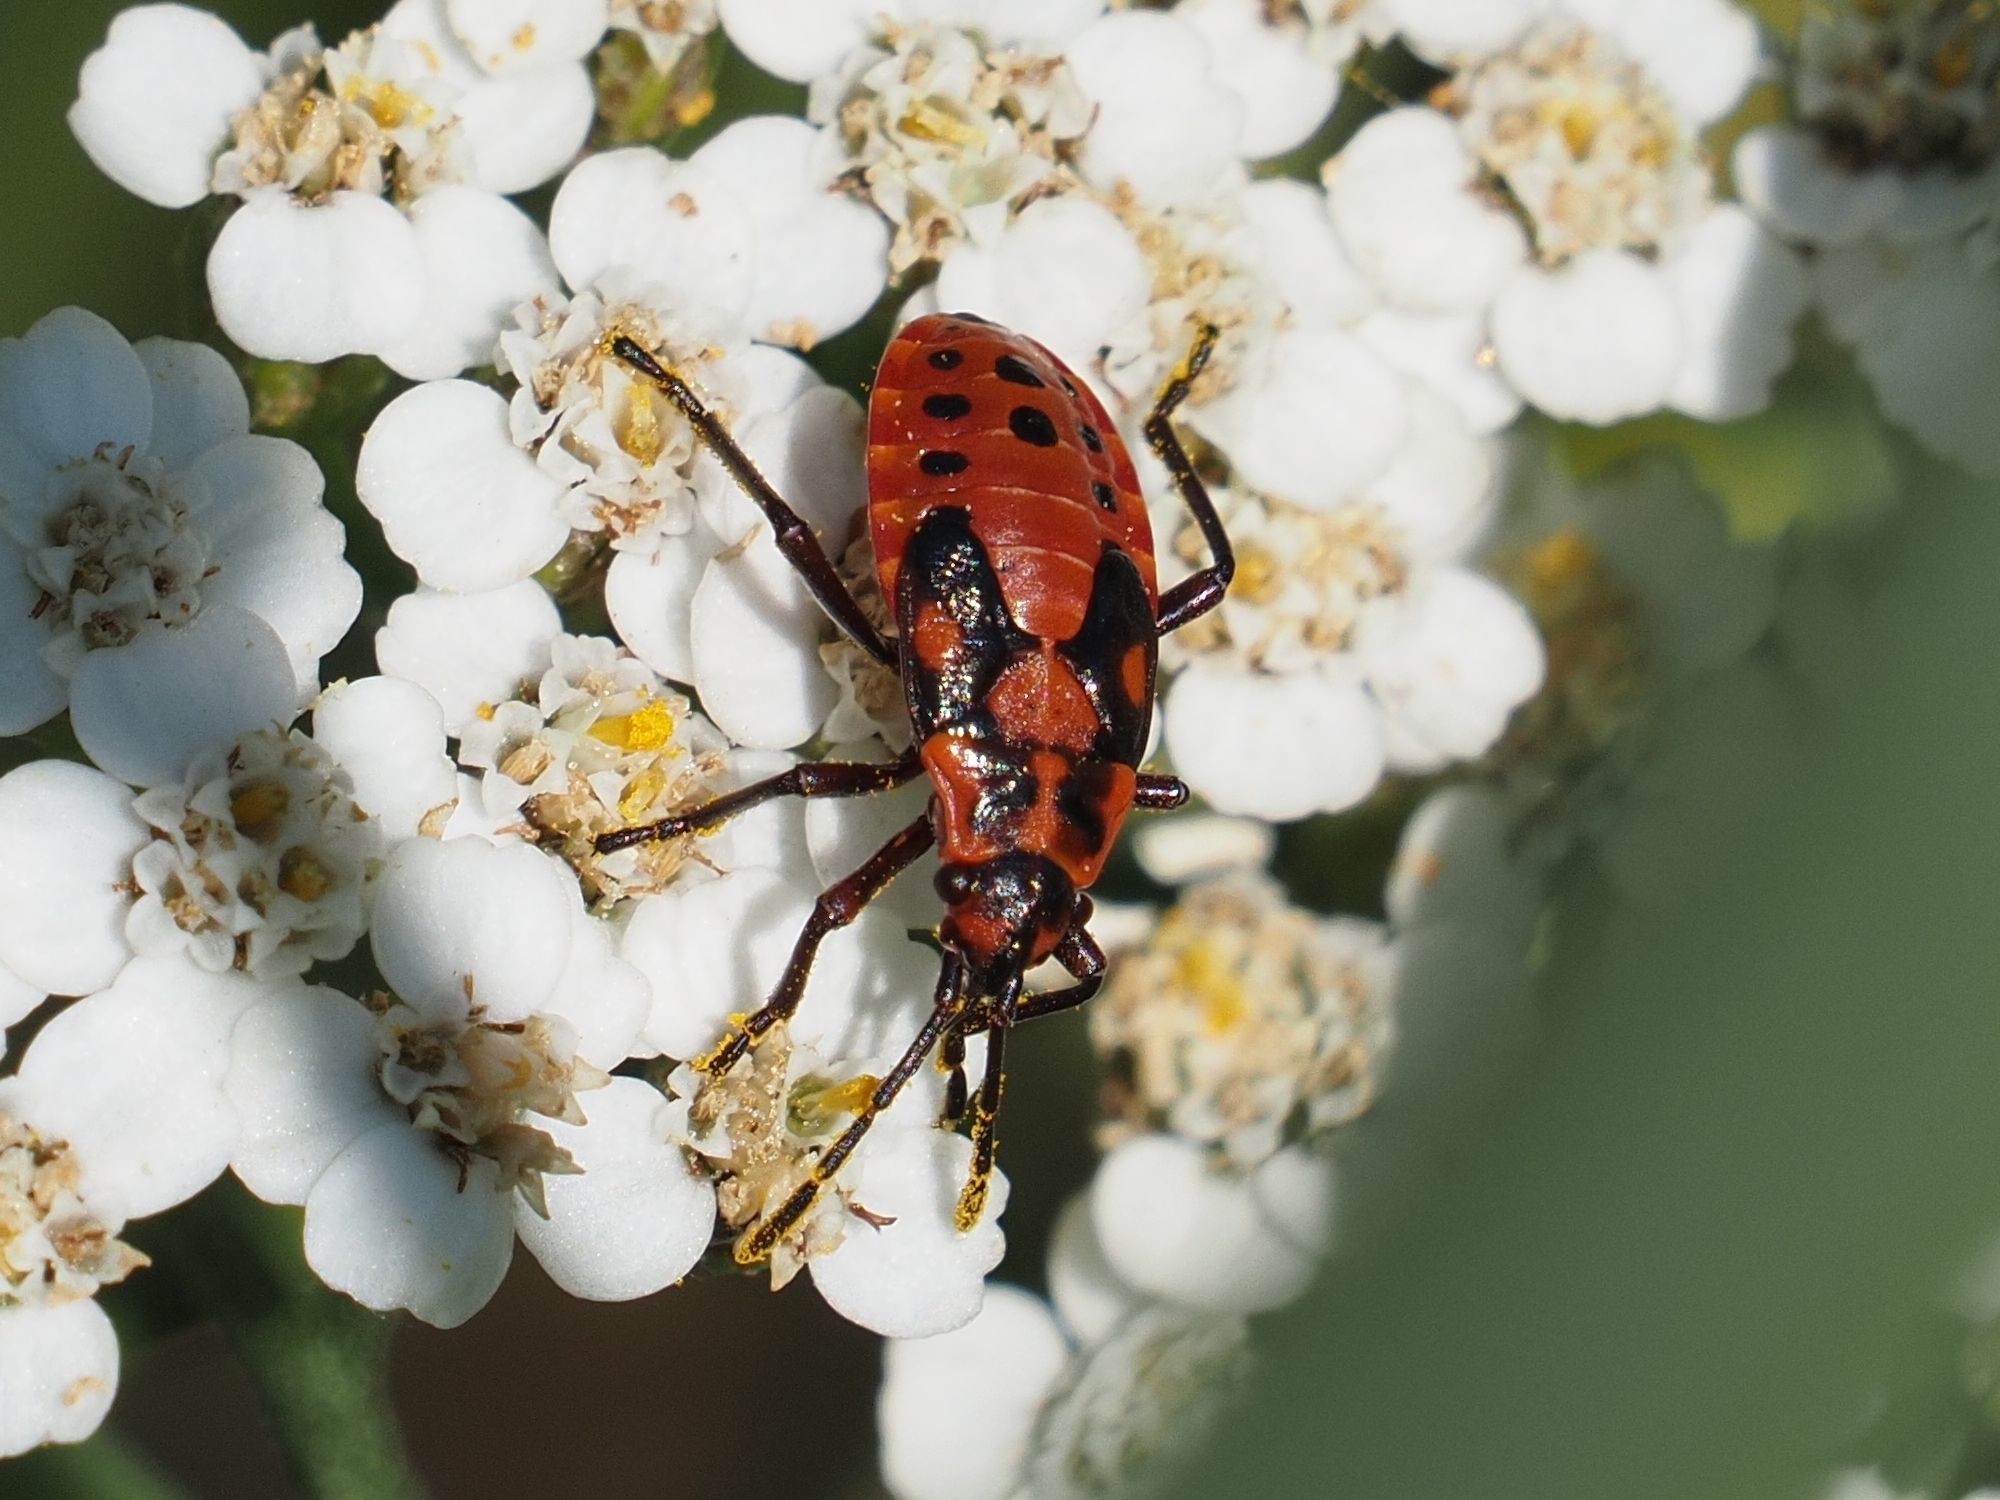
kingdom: Animalia
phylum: Arthropoda
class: Insecta
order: Hemiptera
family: Lygaeidae
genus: Spilostethus
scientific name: Spilostethus saxatilis
